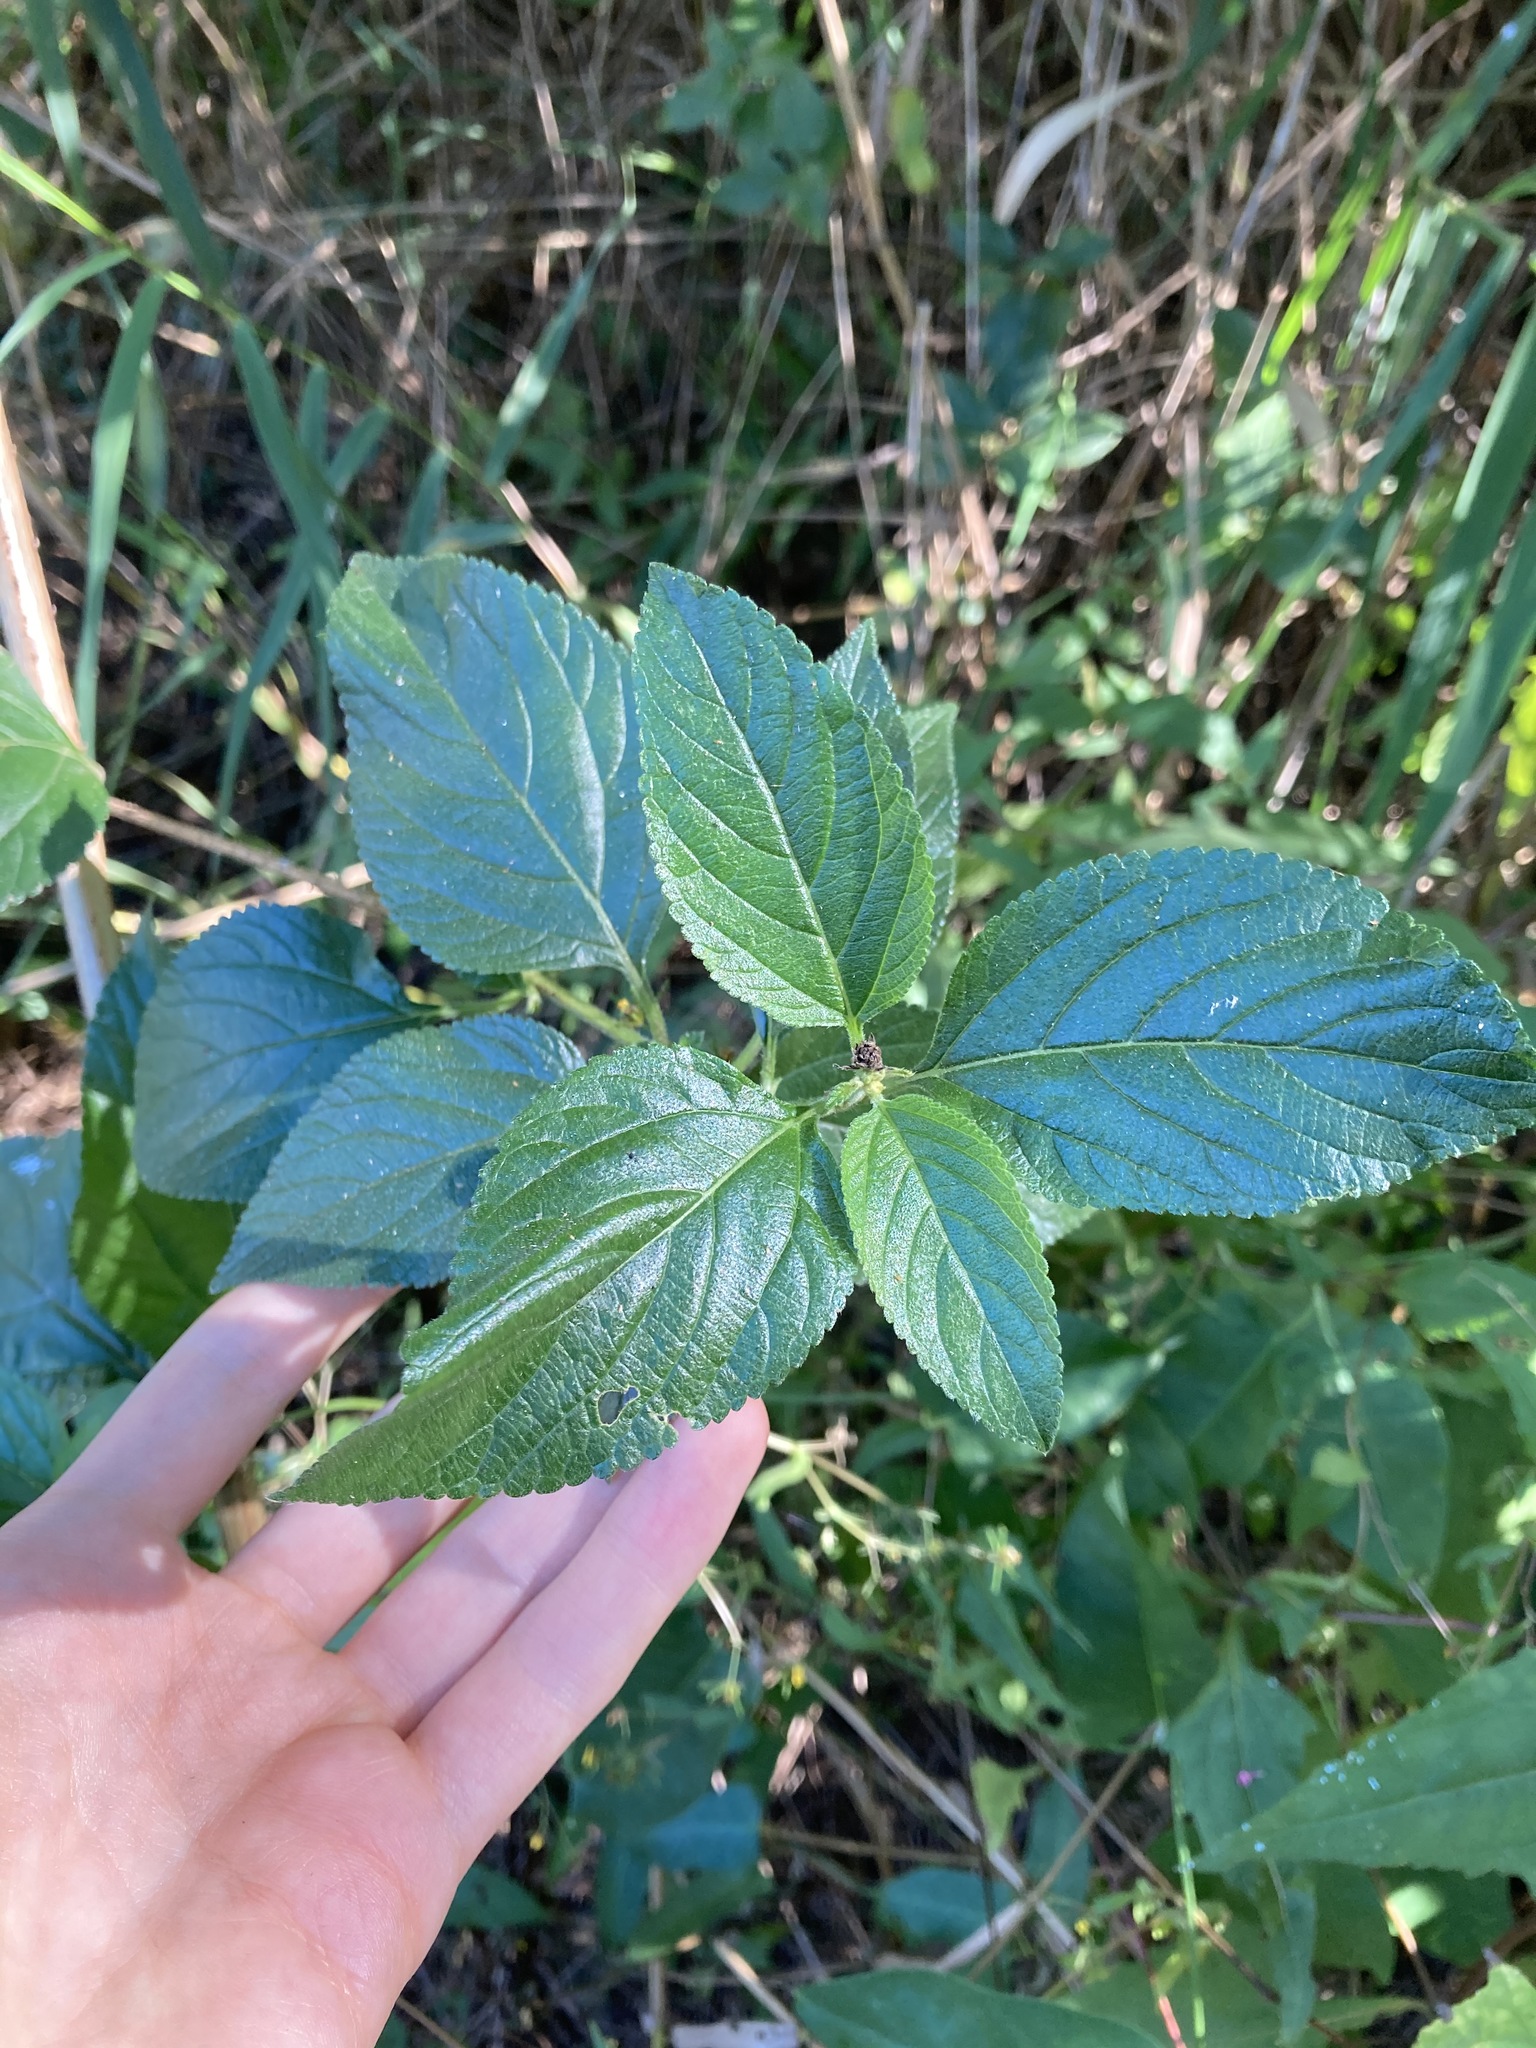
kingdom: Plantae
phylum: Tracheophyta
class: Magnoliopsida
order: Lamiales
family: Verbenaceae
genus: Lantana
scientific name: Lantana camara
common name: Lantana
